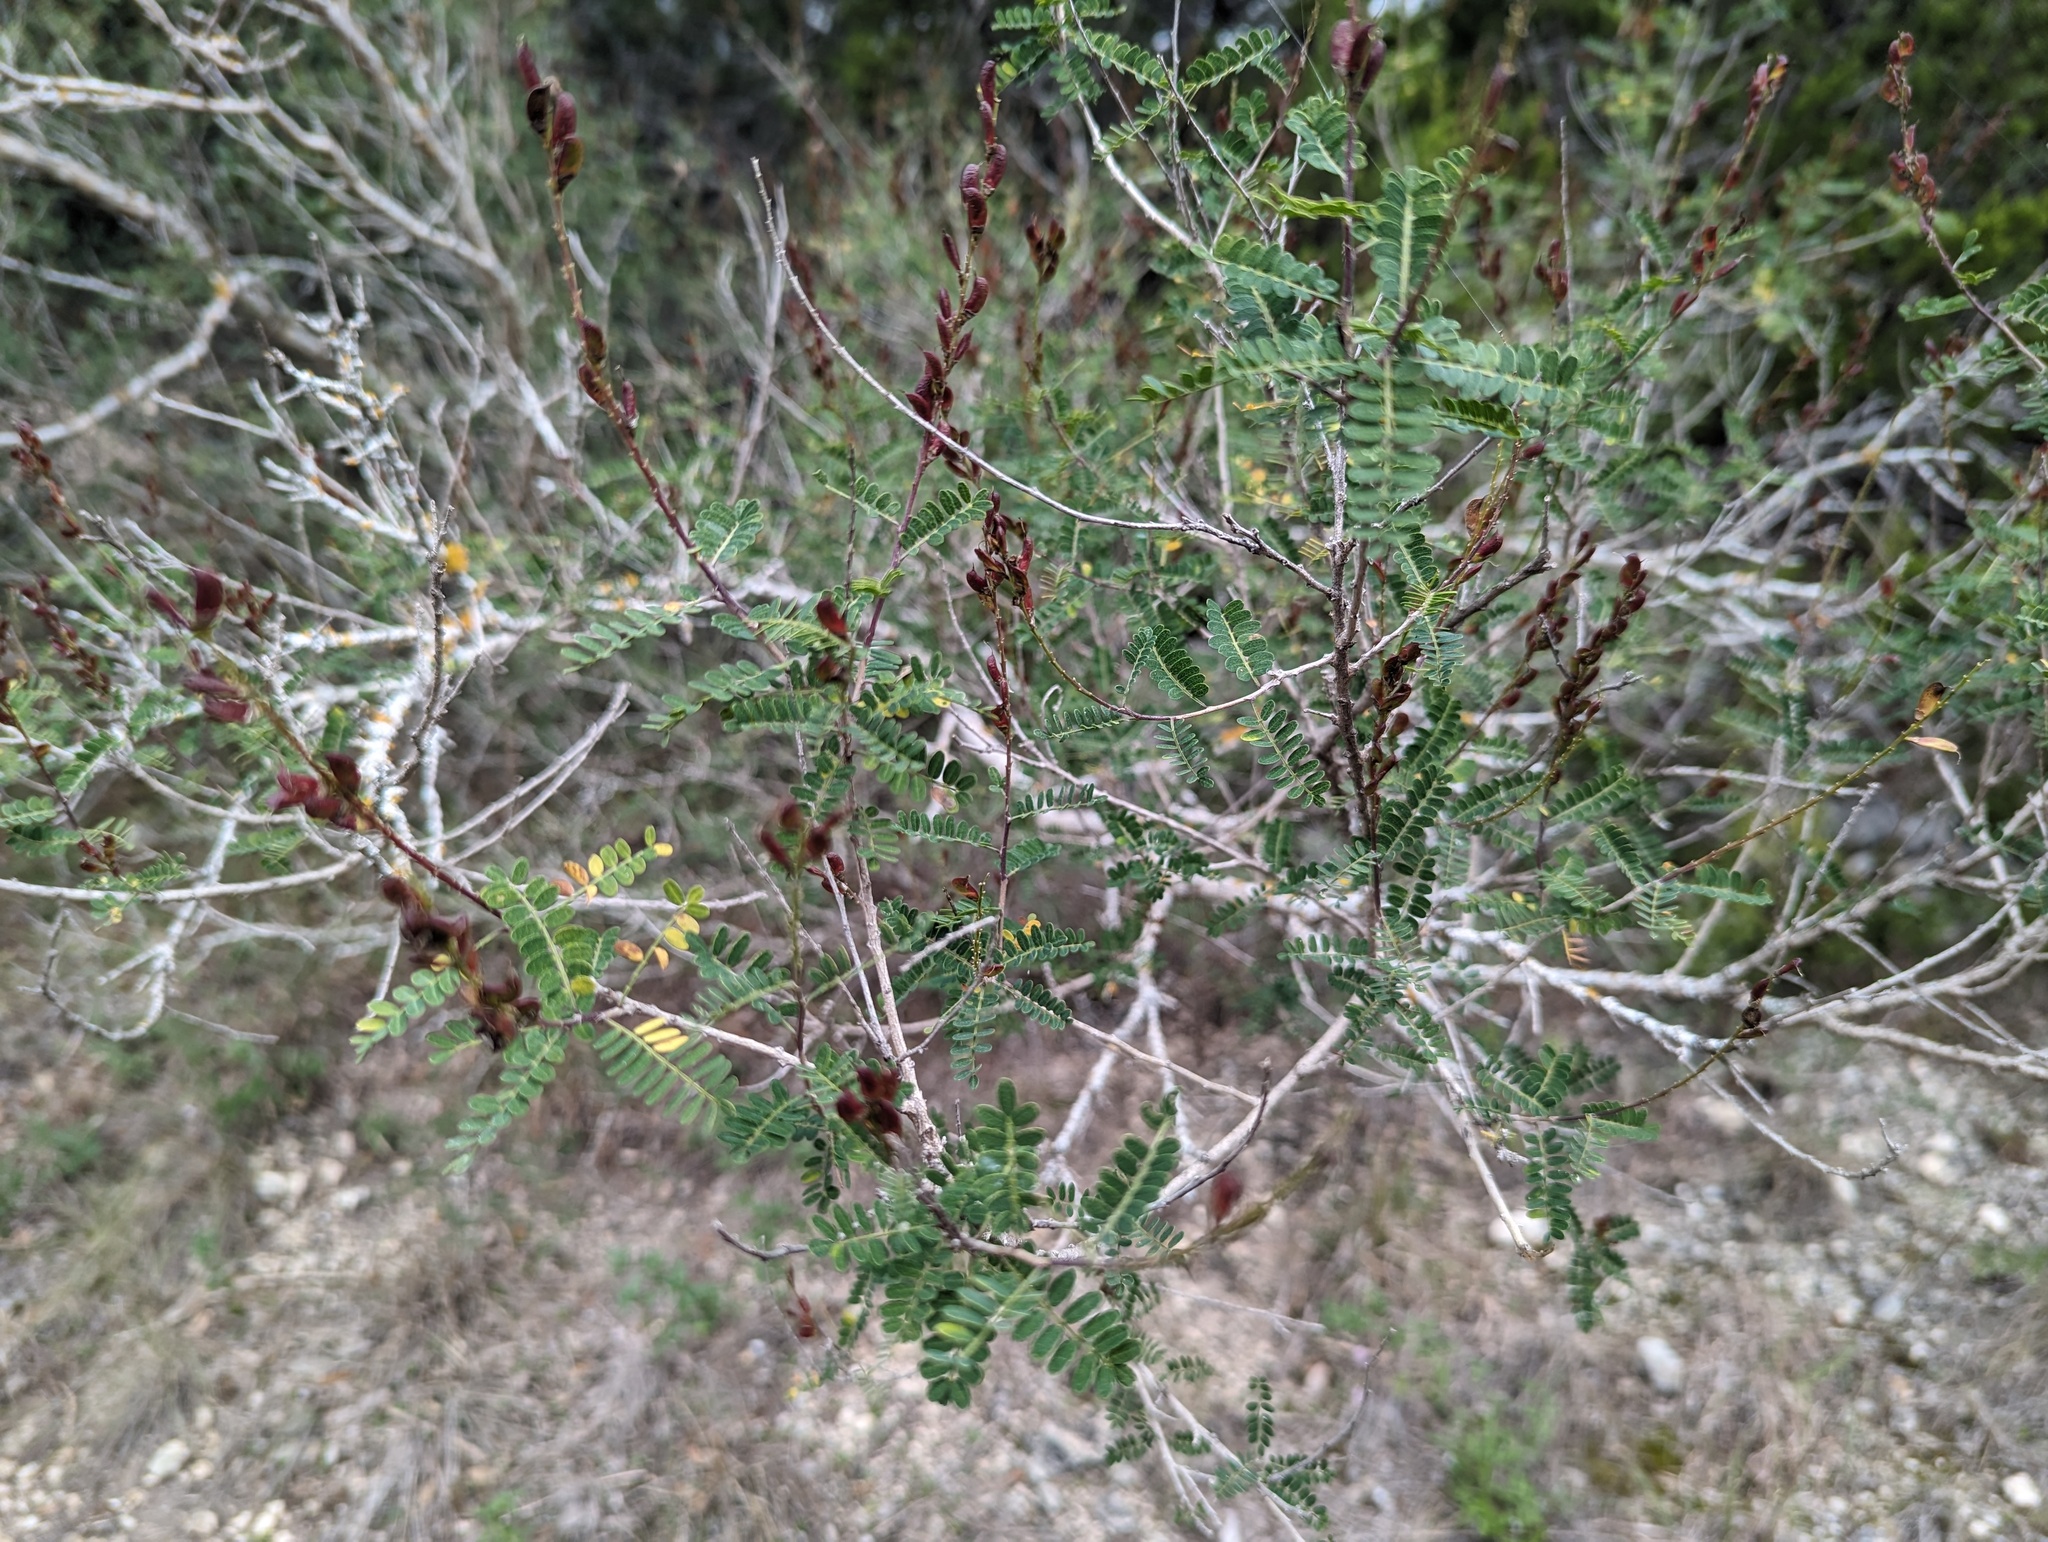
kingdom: Plantae
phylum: Tracheophyta
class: Magnoliopsida
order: Fabales
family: Fabaceae
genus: Eysenhardtia
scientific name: Eysenhardtia texana
